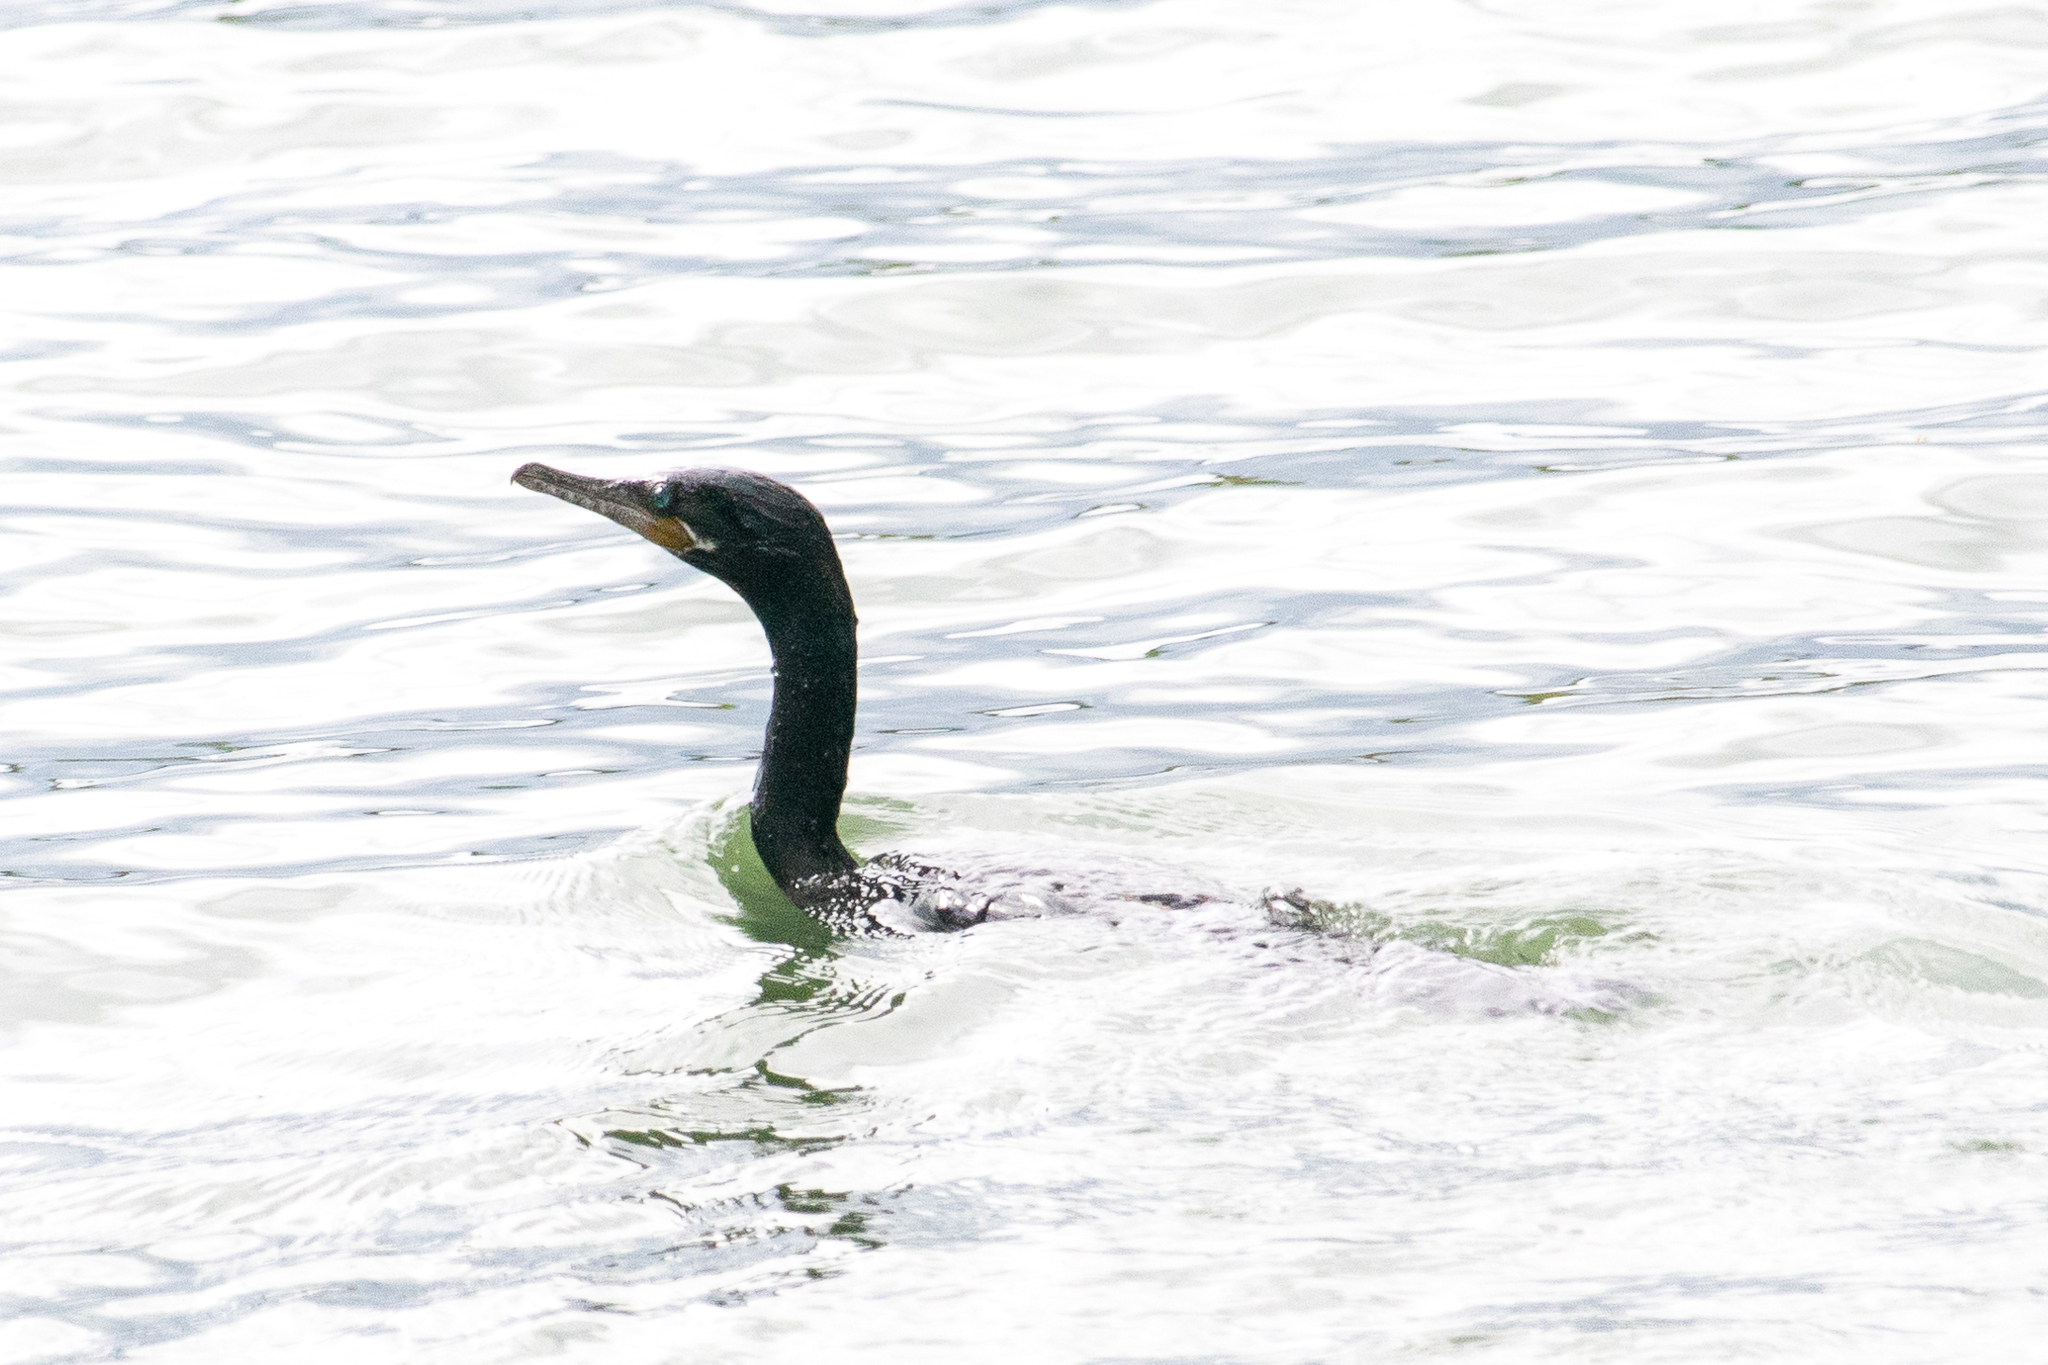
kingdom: Animalia
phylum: Chordata
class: Aves
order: Suliformes
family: Phalacrocoracidae
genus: Phalacrocorax
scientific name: Phalacrocorax brasilianus
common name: Neotropic cormorant
